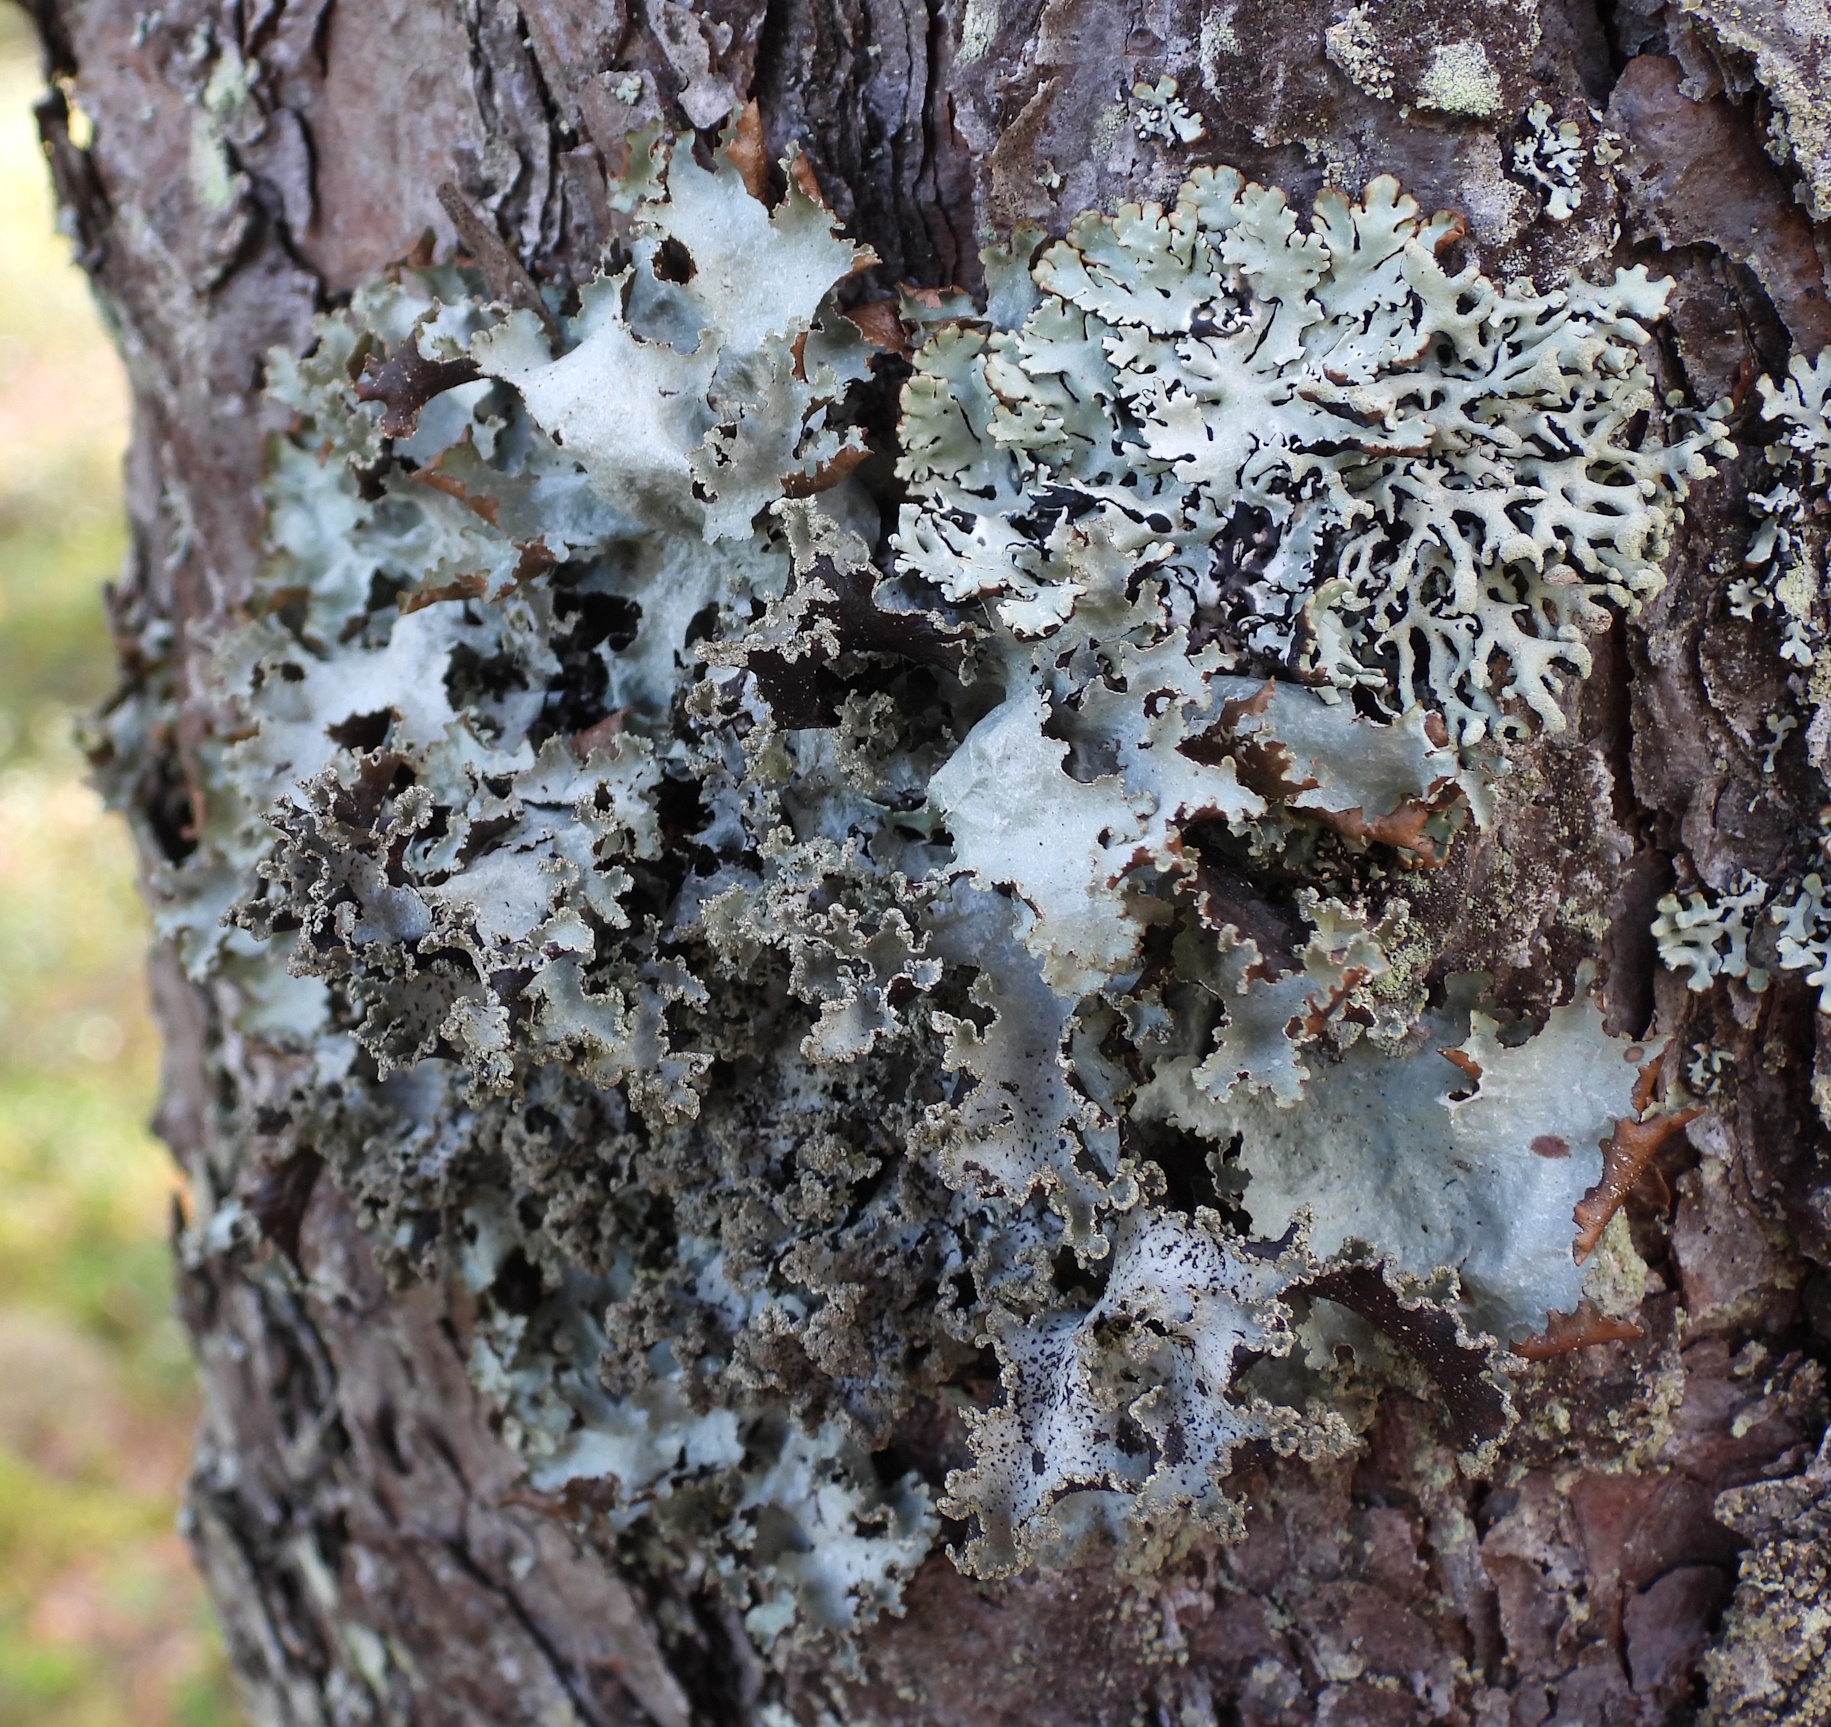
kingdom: Fungi
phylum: Ascomycota
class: Lecanoromycetes
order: Lecanorales
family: Parmeliaceae
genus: Platismatia
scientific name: Platismatia glauca
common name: Varied rag lichen
